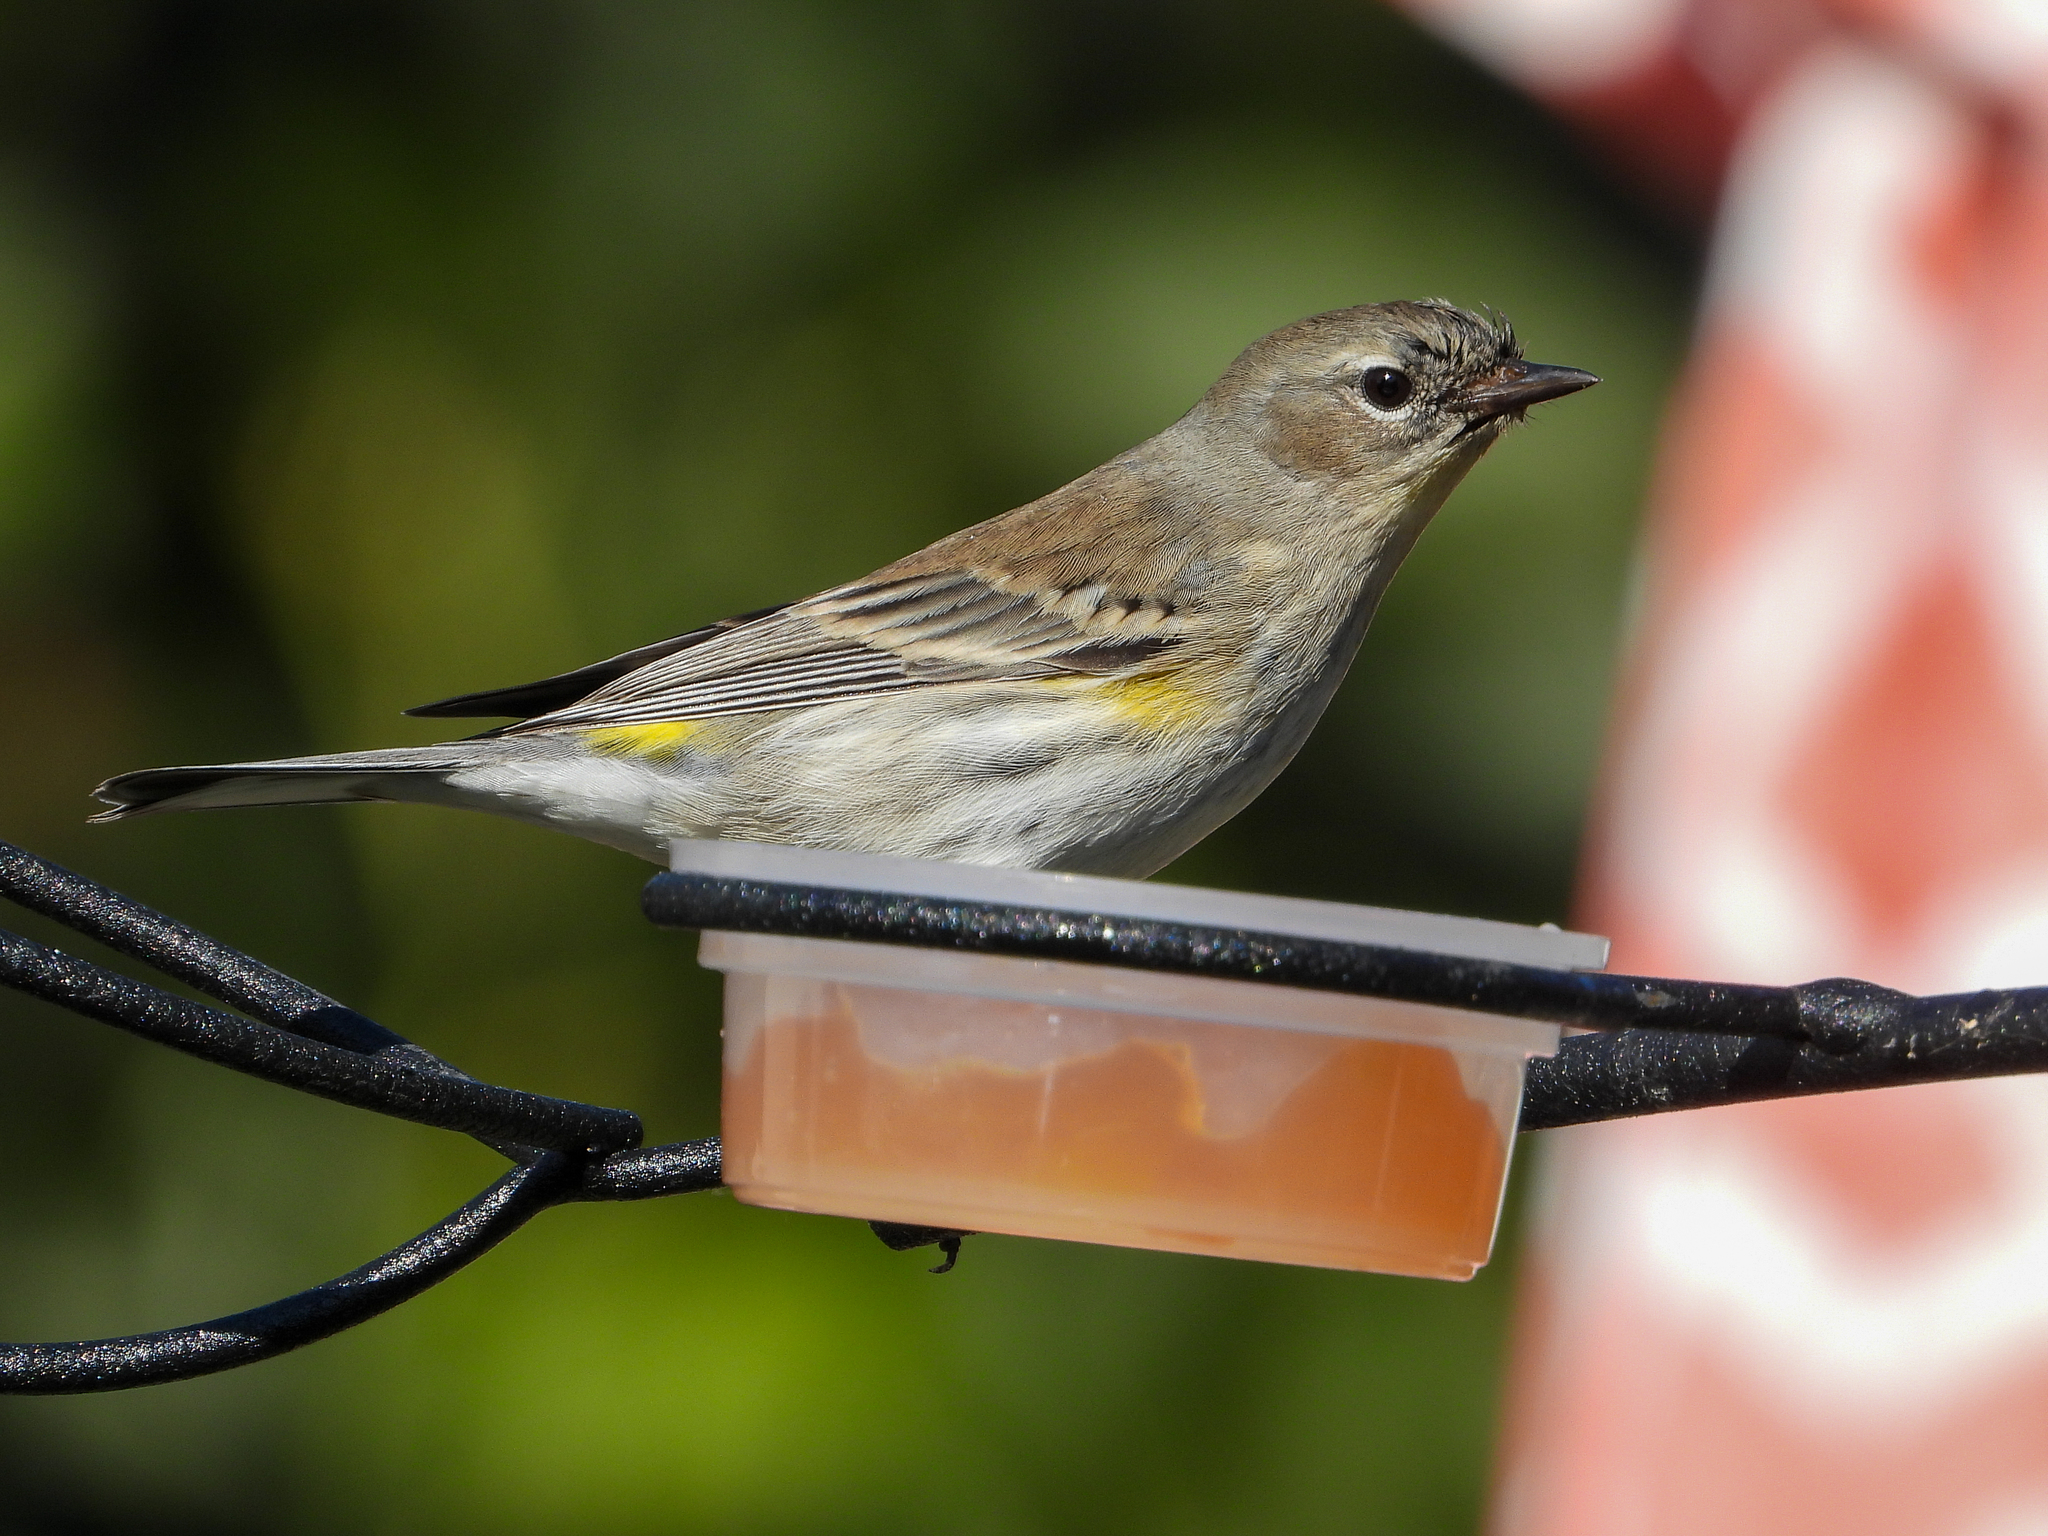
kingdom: Animalia
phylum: Chordata
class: Aves
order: Passeriformes
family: Parulidae
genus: Setophaga
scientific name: Setophaga coronata
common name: Myrtle warbler
